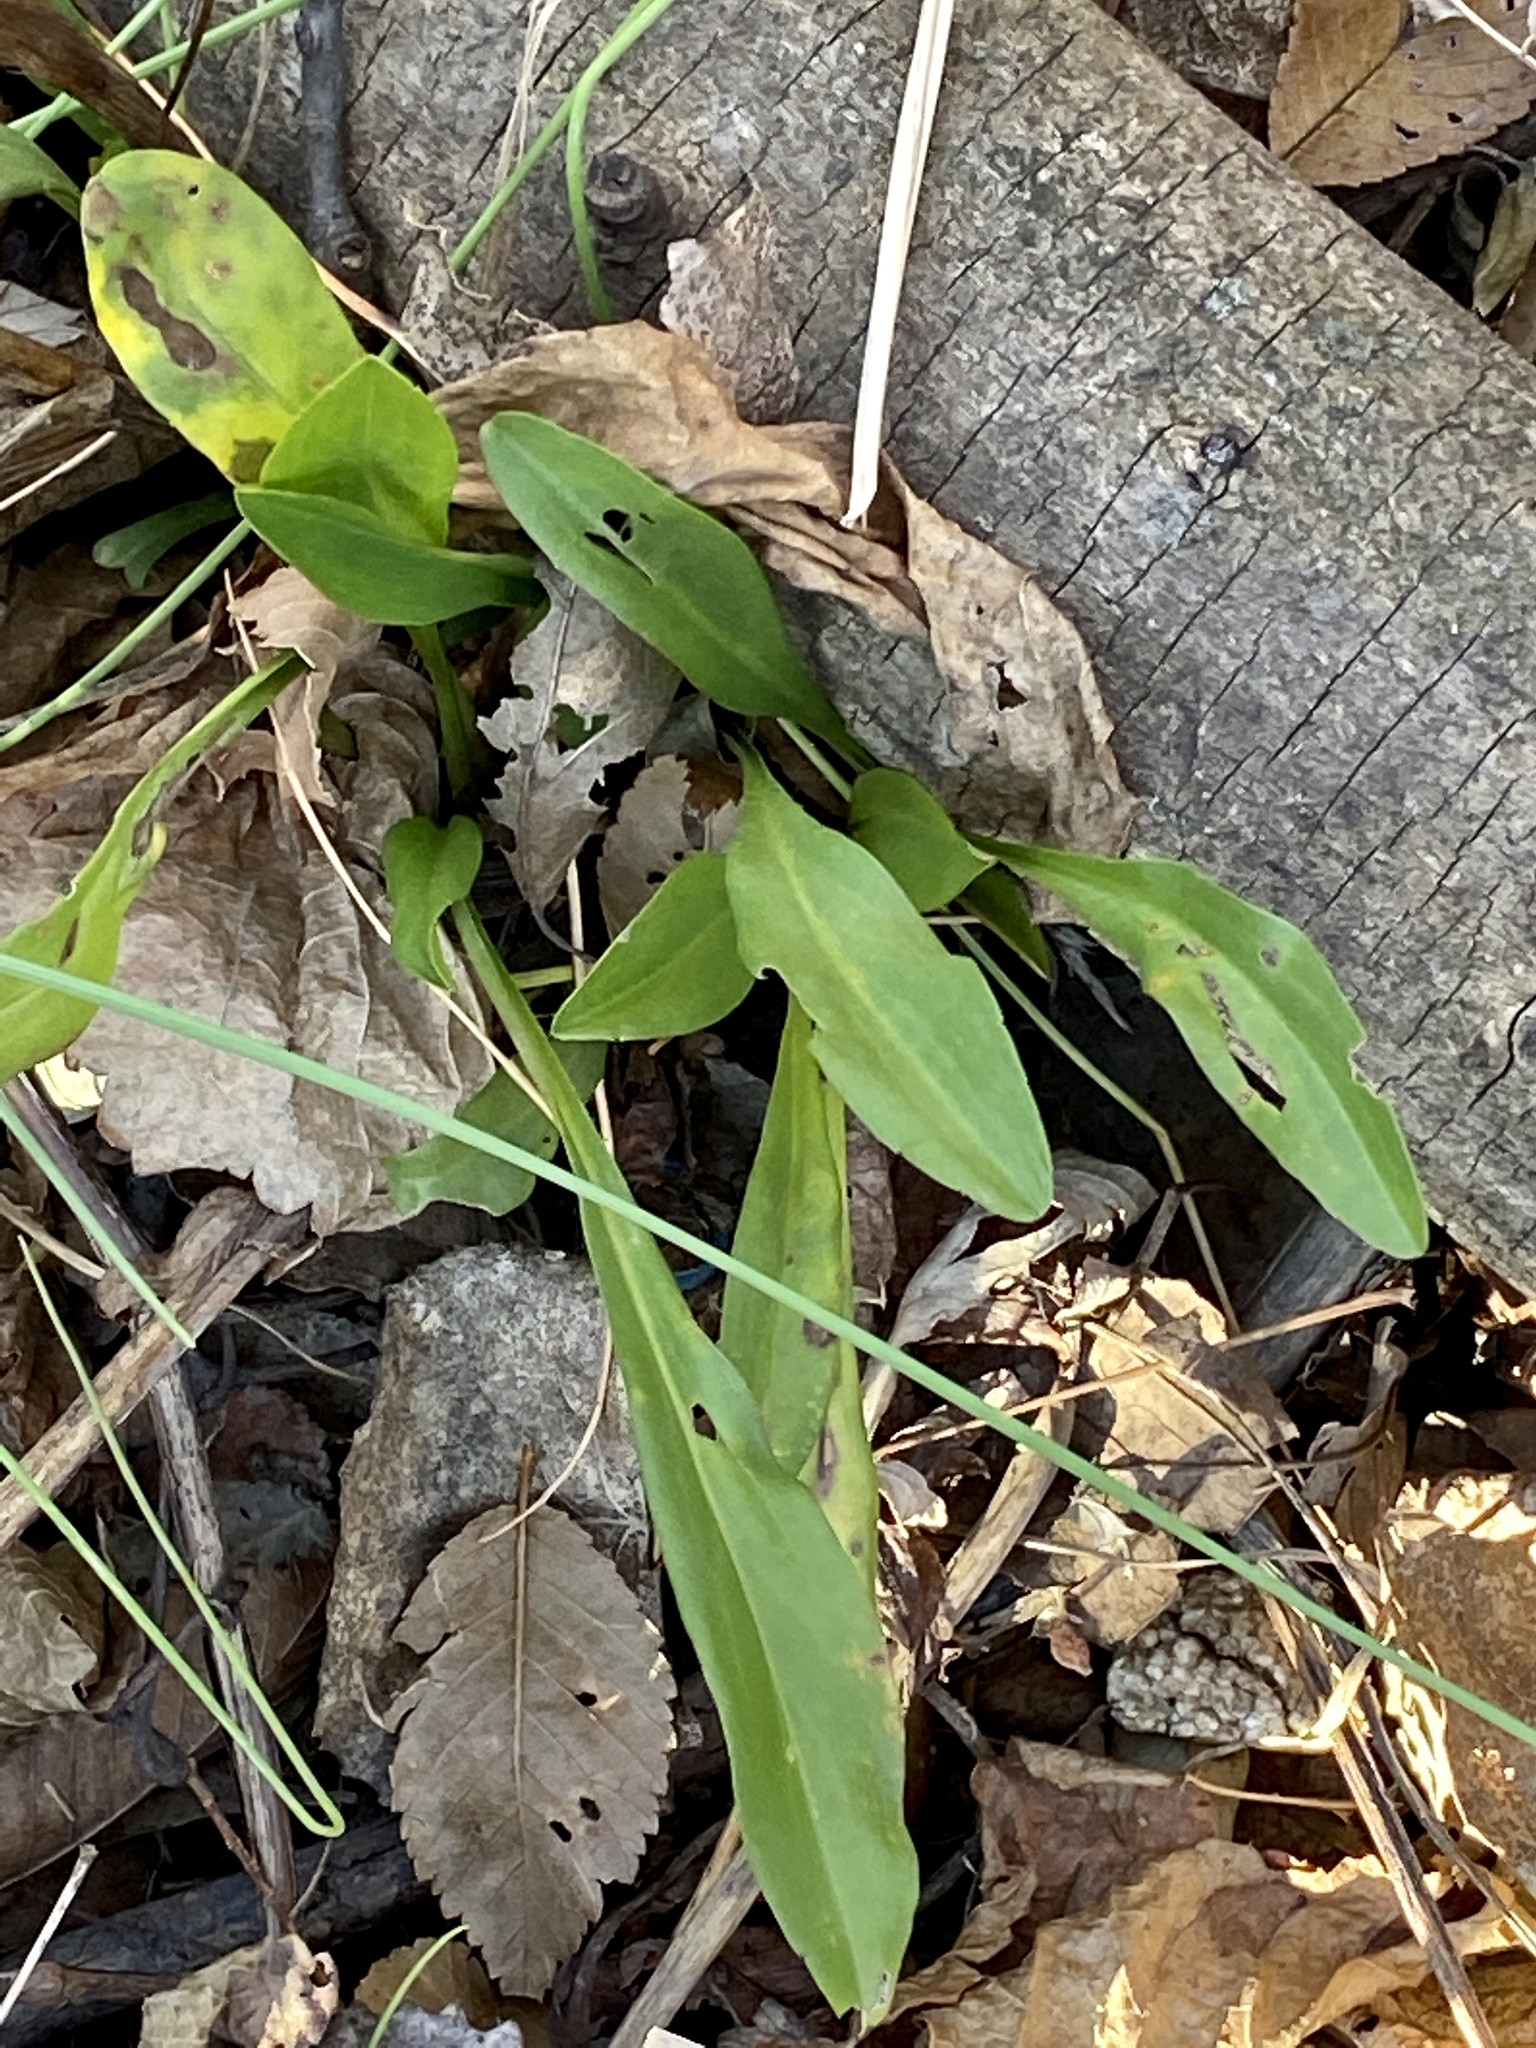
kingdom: Plantae
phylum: Tracheophyta
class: Magnoliopsida
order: Asterales
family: Asteraceae
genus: Solidago
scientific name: Solidago sempervirens
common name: Salt-marsh goldenrod
